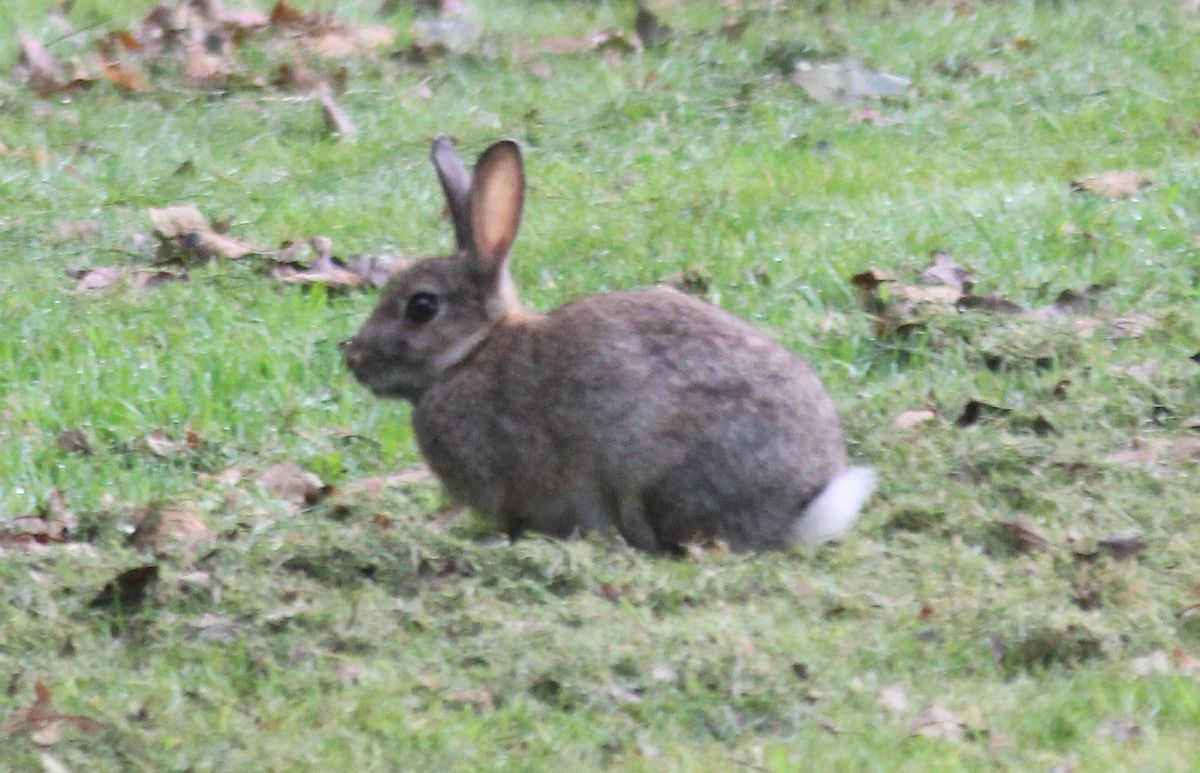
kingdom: Animalia
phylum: Chordata
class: Mammalia
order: Lagomorpha
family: Leporidae
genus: Oryctolagus
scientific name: Oryctolagus cuniculus
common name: European rabbit
